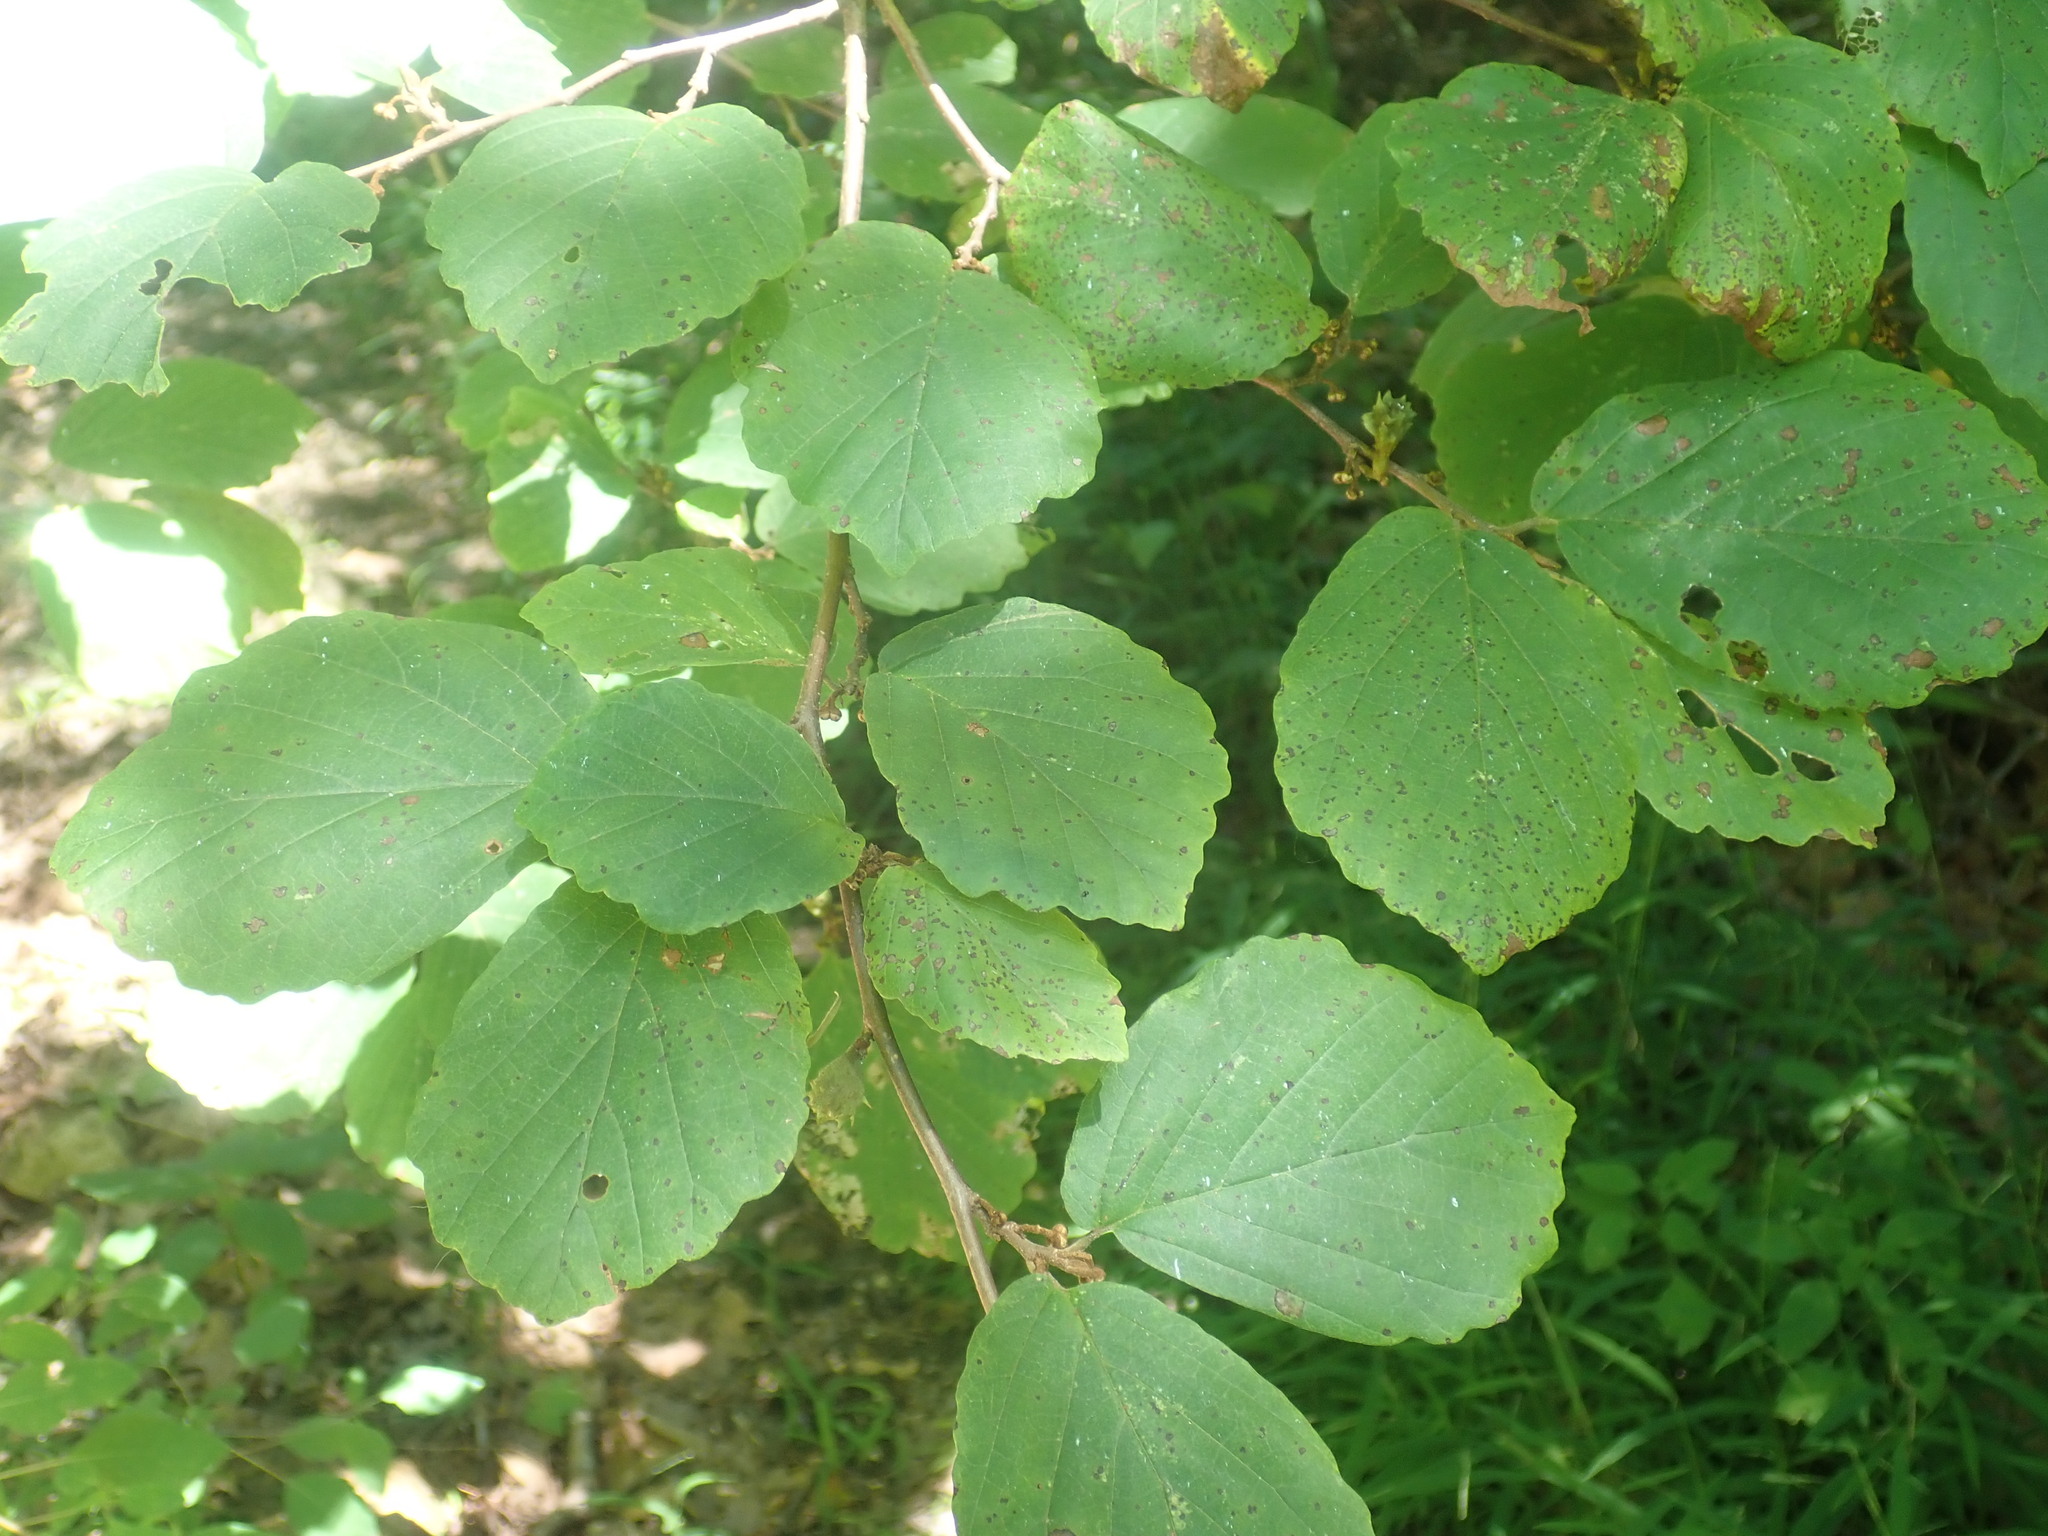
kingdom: Plantae
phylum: Tracheophyta
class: Magnoliopsida
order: Saxifragales
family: Hamamelidaceae
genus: Hamamelis
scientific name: Hamamelis virginiana
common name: Witch-hazel
